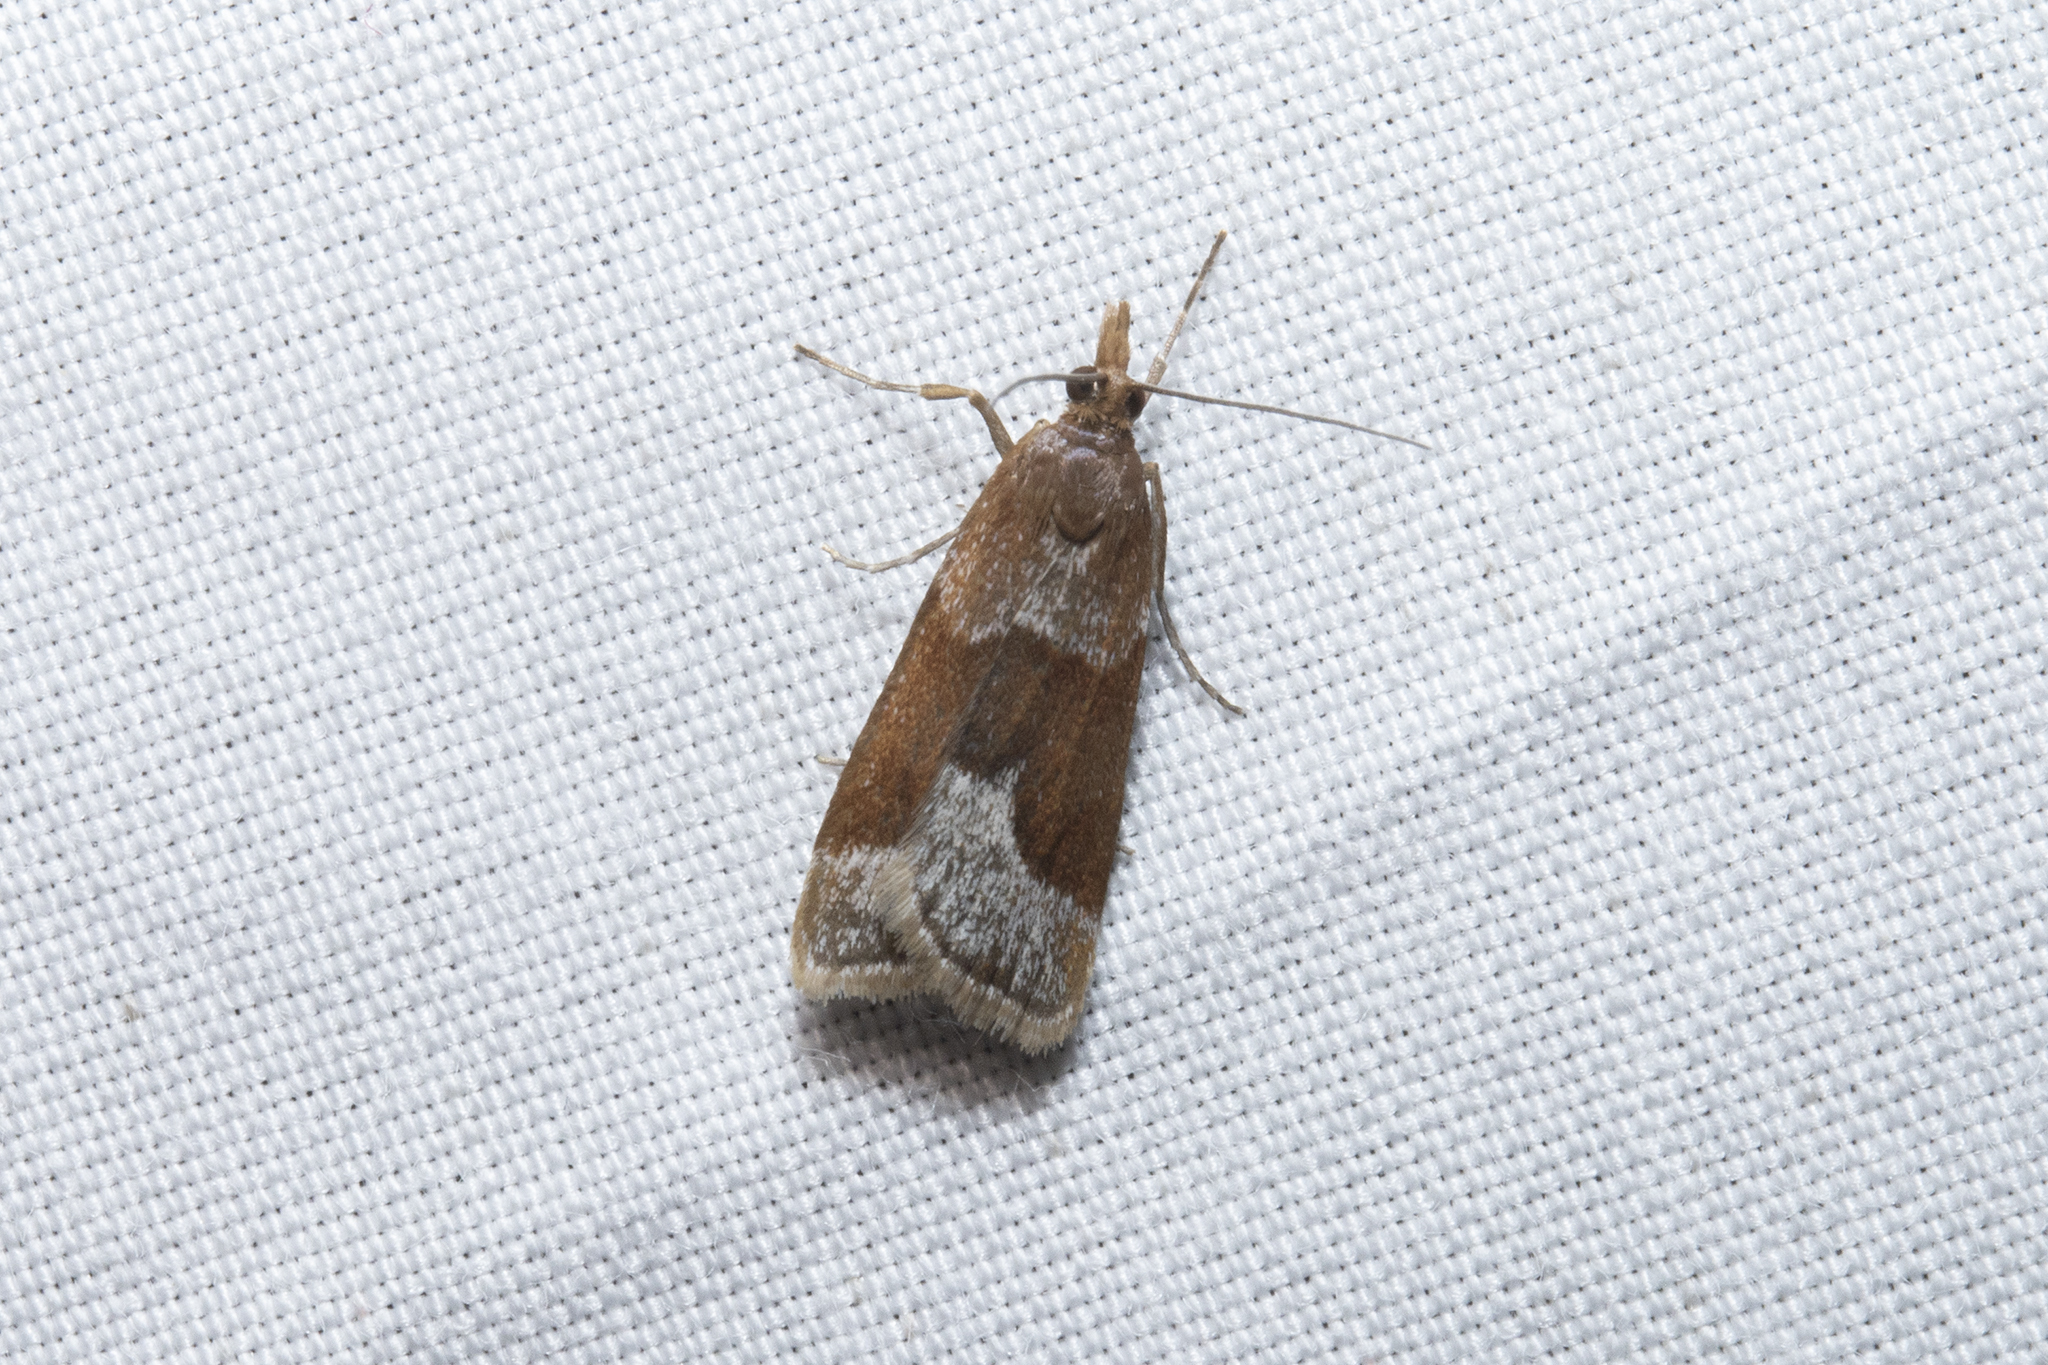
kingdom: Animalia
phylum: Arthropoda
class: Insecta
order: Lepidoptera
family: Crambidae
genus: Eudonia
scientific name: Eudonia feredayi
